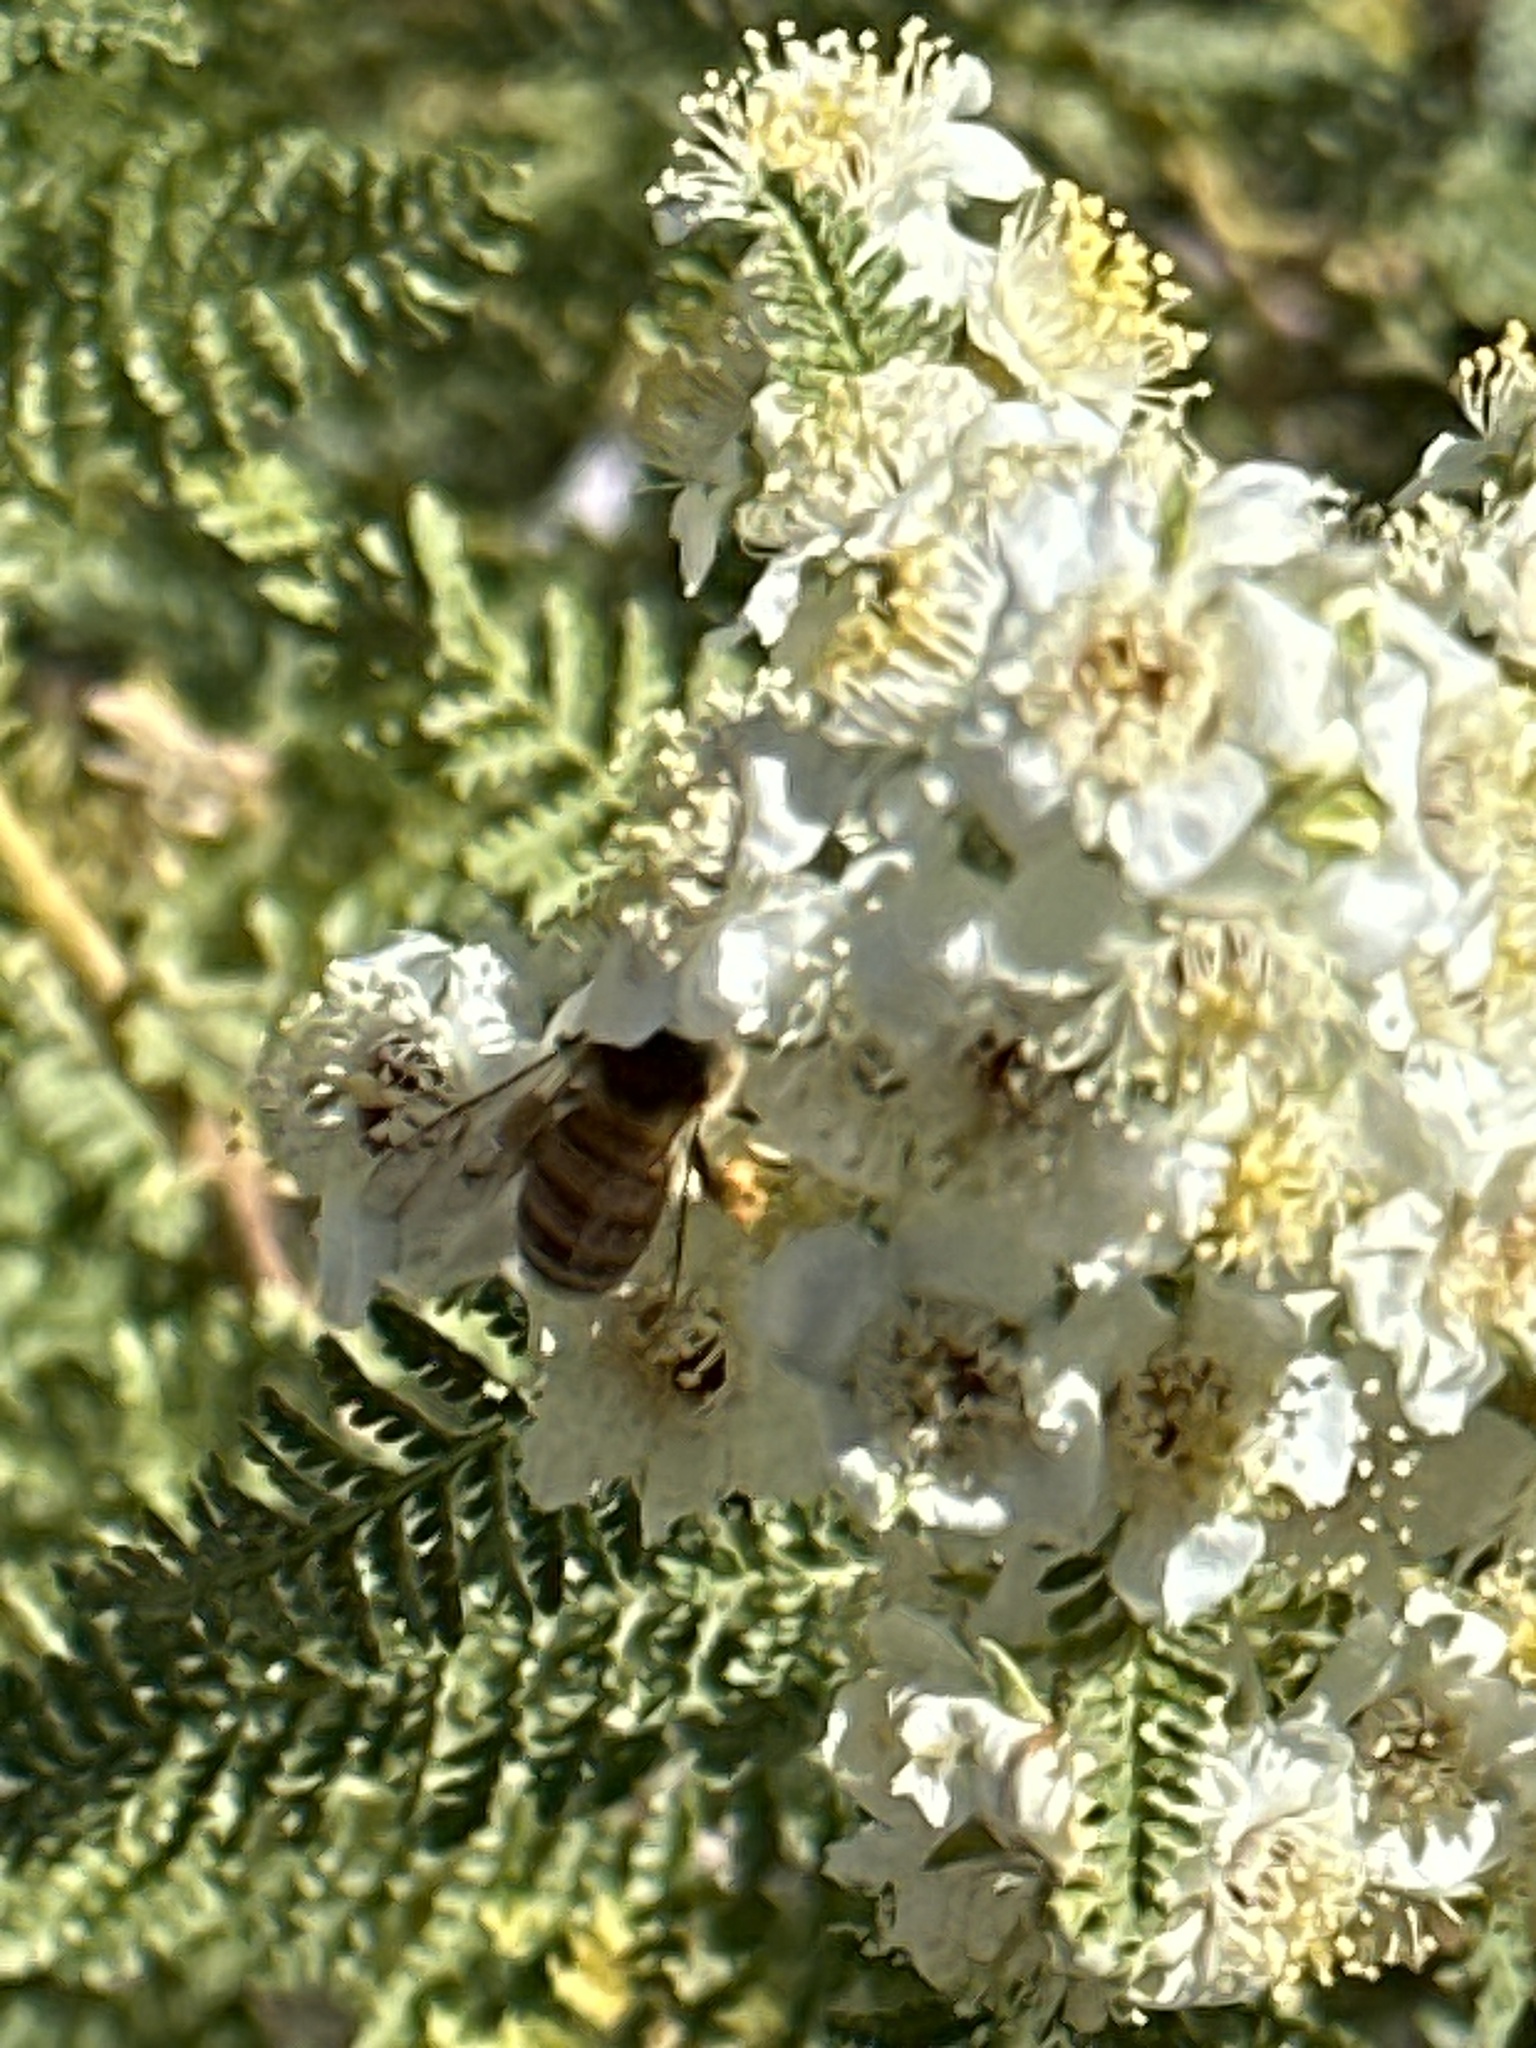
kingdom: Animalia
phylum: Arthropoda
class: Insecta
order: Hymenoptera
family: Apidae
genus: Apis
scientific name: Apis mellifera
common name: Honey bee
